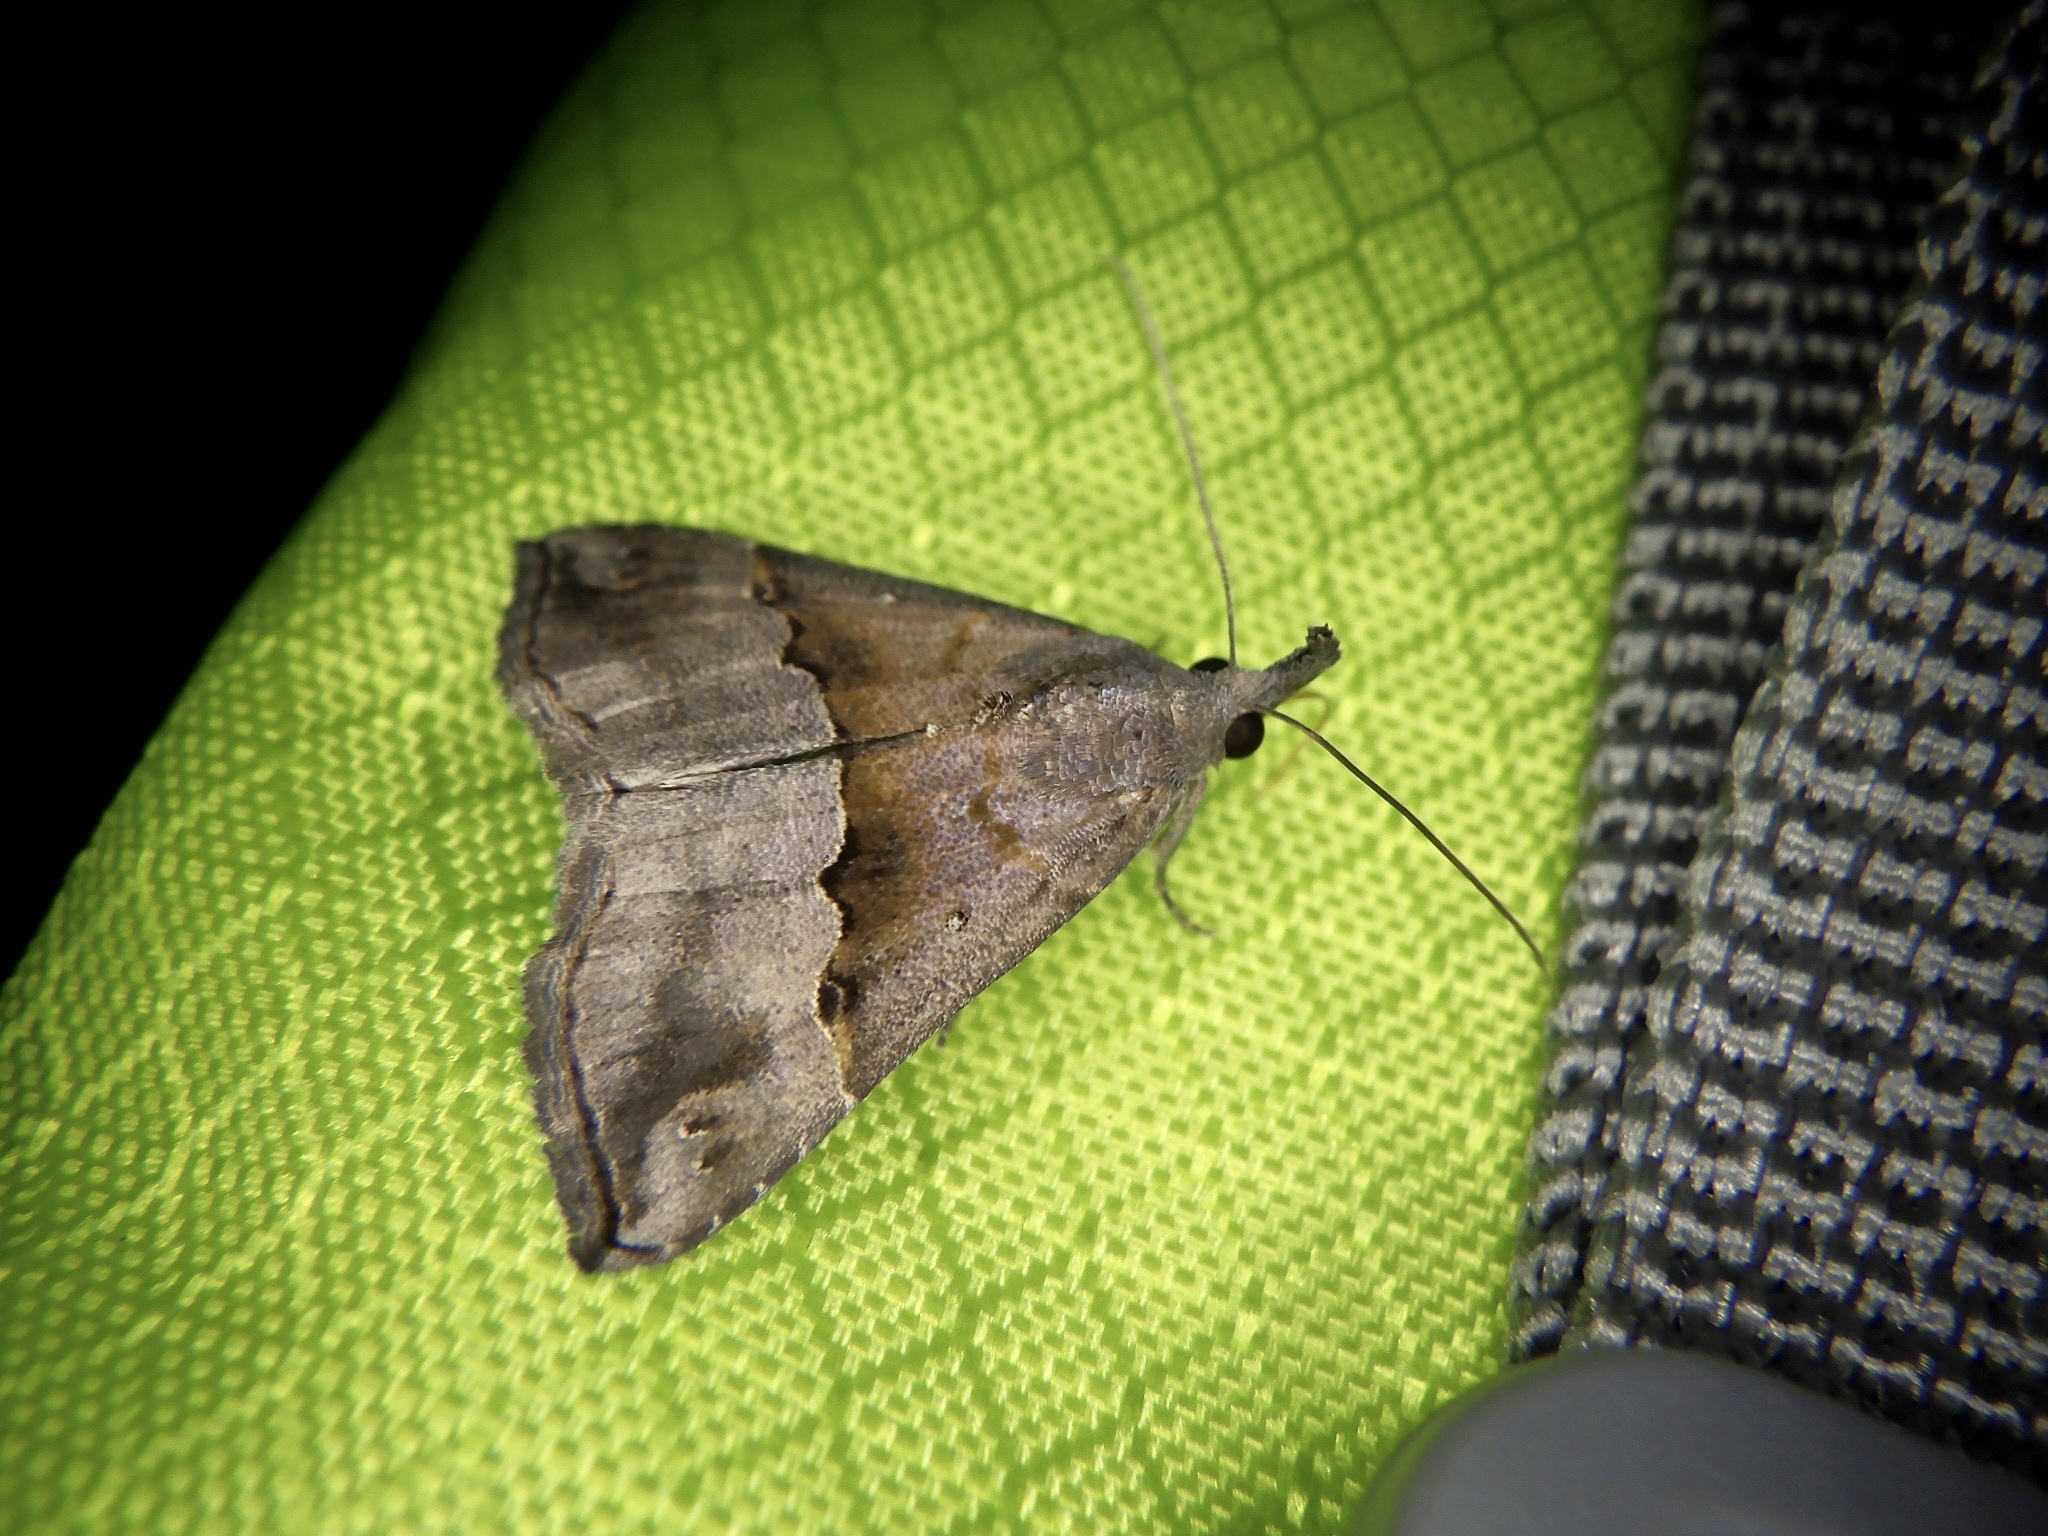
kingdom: Animalia
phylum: Arthropoda
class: Insecta
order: Lepidoptera
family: Erebidae
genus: Hypena
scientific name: Hypena indicatalis
